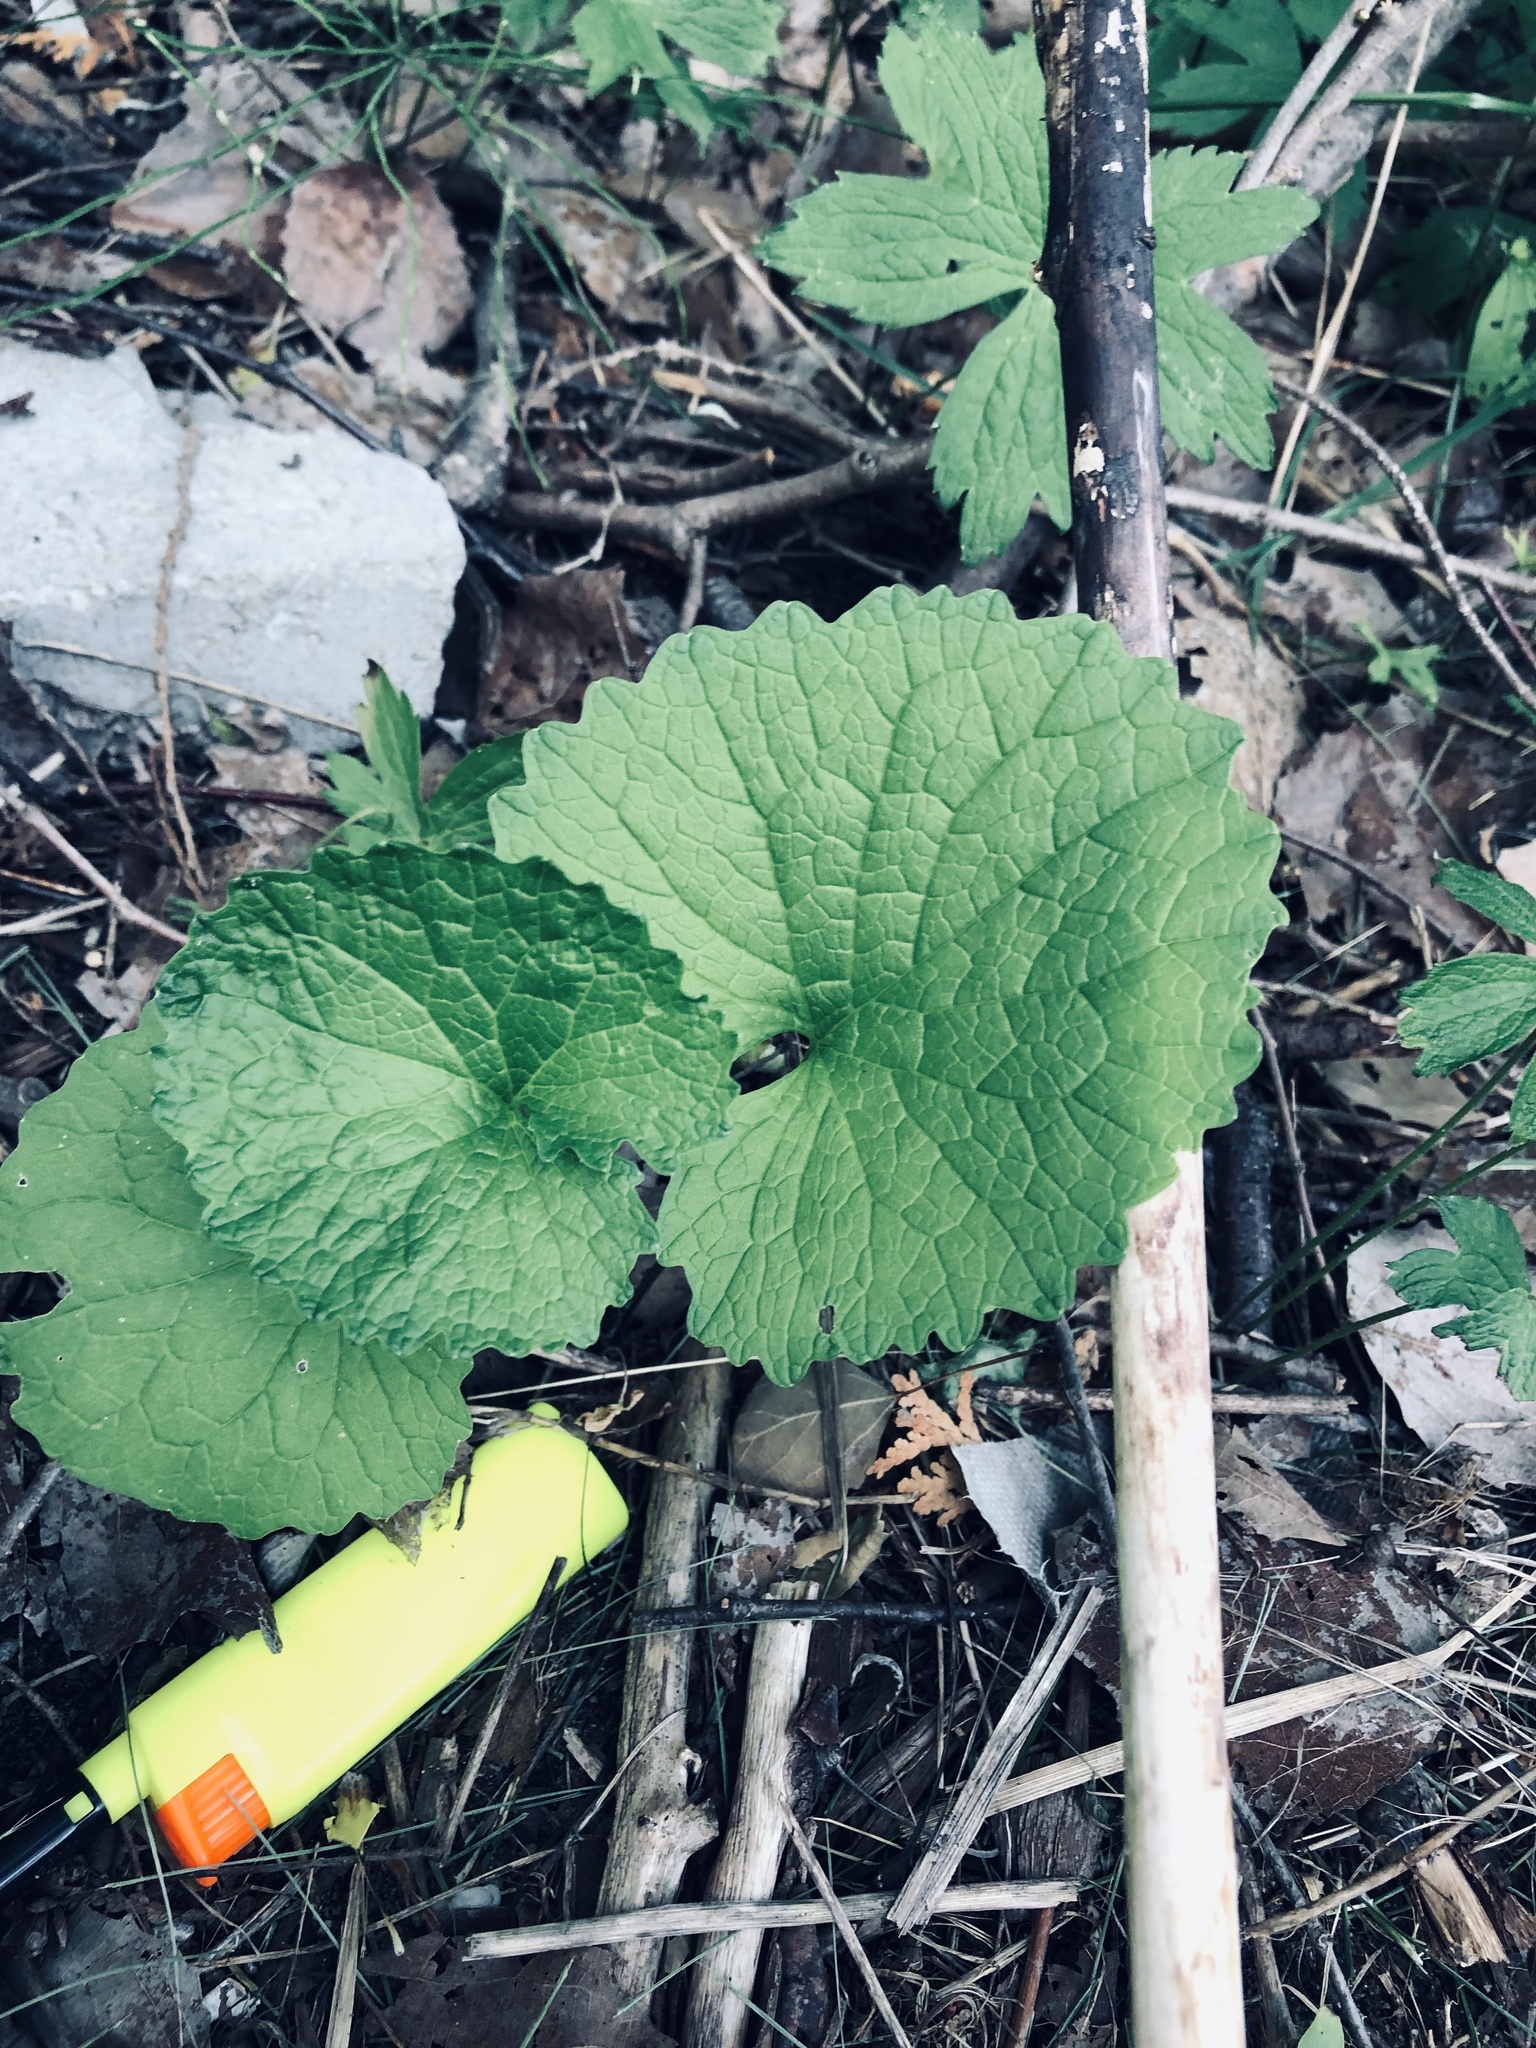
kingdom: Plantae
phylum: Tracheophyta
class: Magnoliopsida
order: Brassicales
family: Brassicaceae
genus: Alliaria
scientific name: Alliaria petiolata
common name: Garlic mustard
